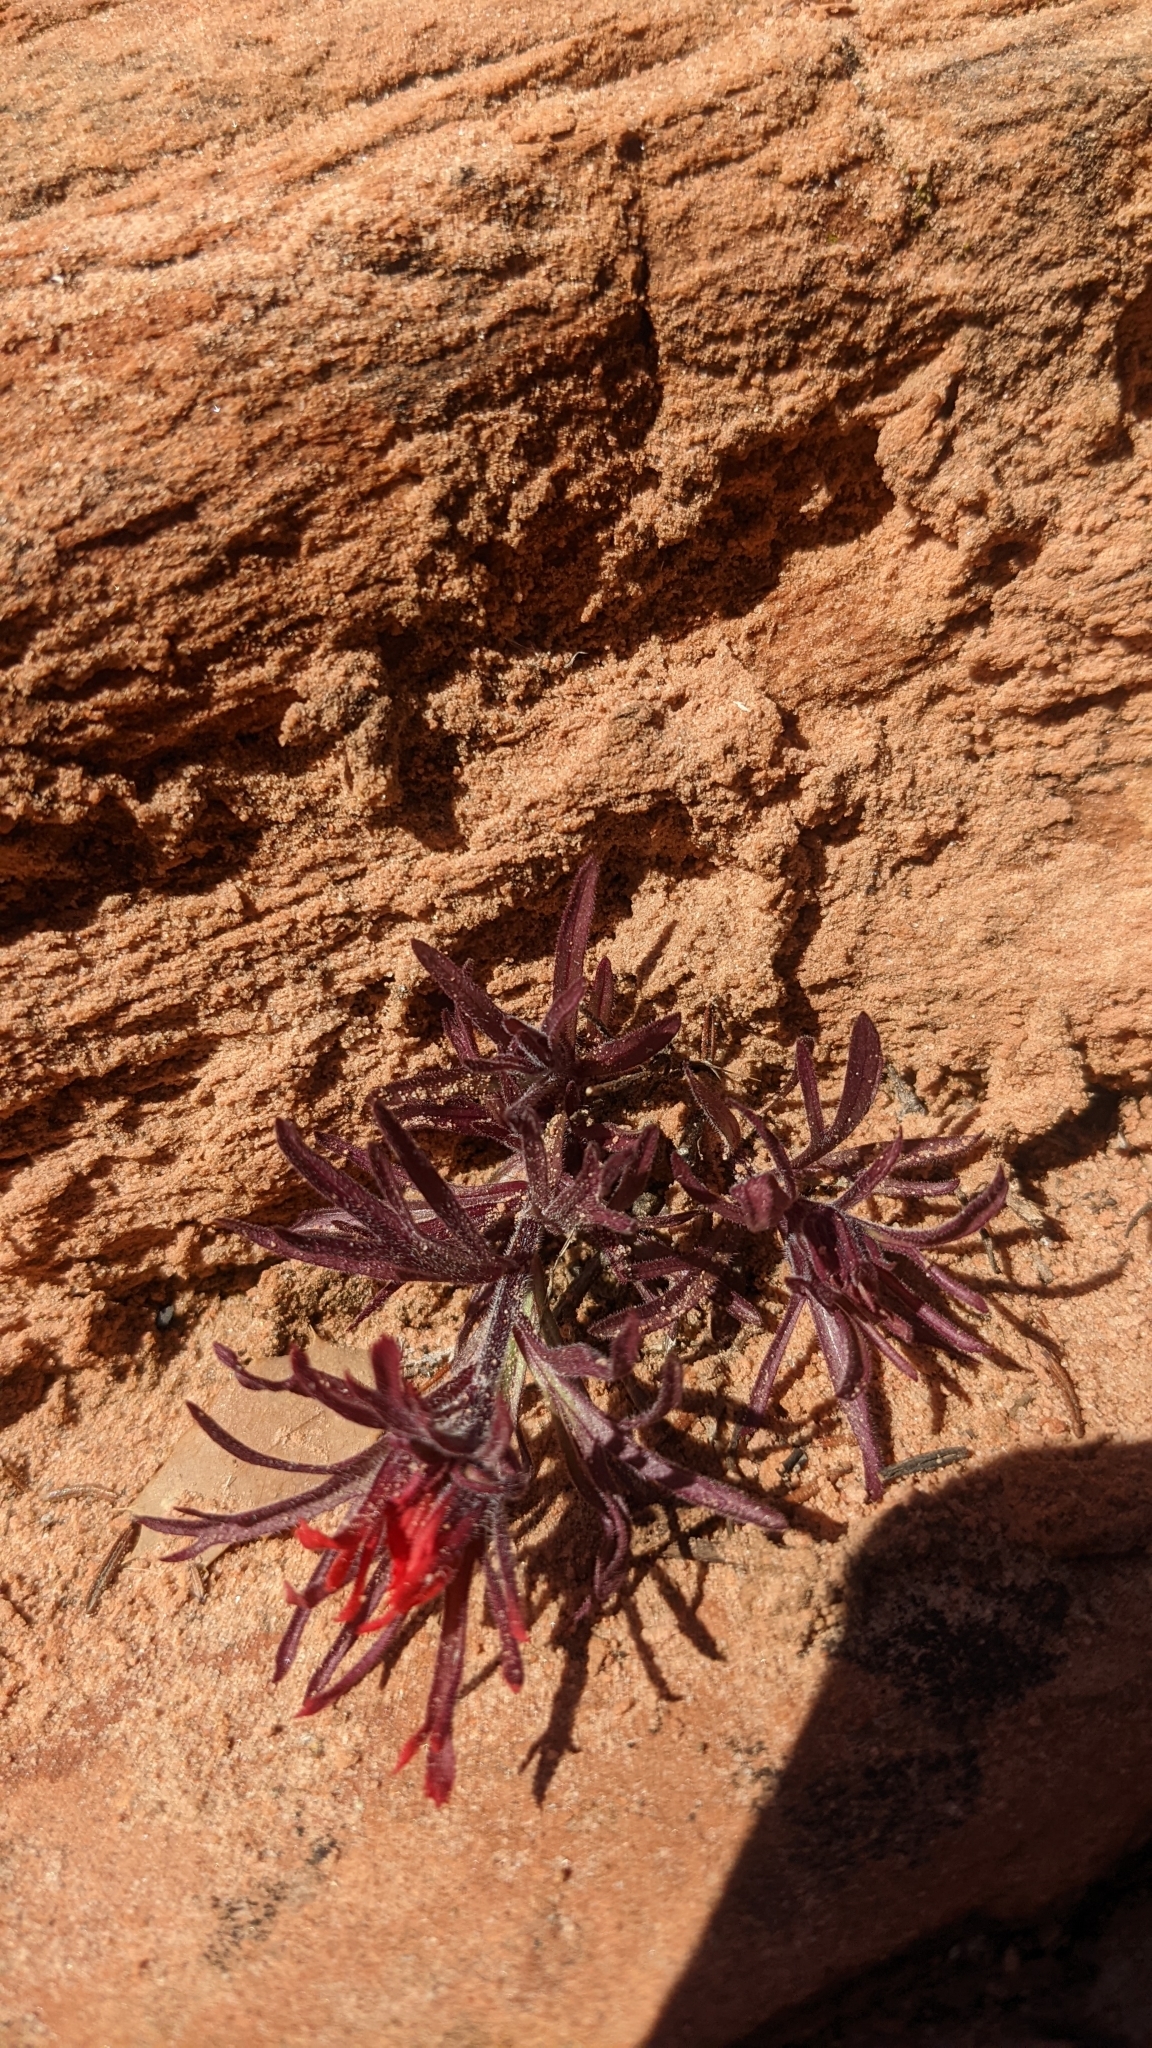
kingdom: Plantae
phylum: Tracheophyta
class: Magnoliopsida
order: Lamiales
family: Orobanchaceae
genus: Castilleja
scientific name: Castilleja scabrida
